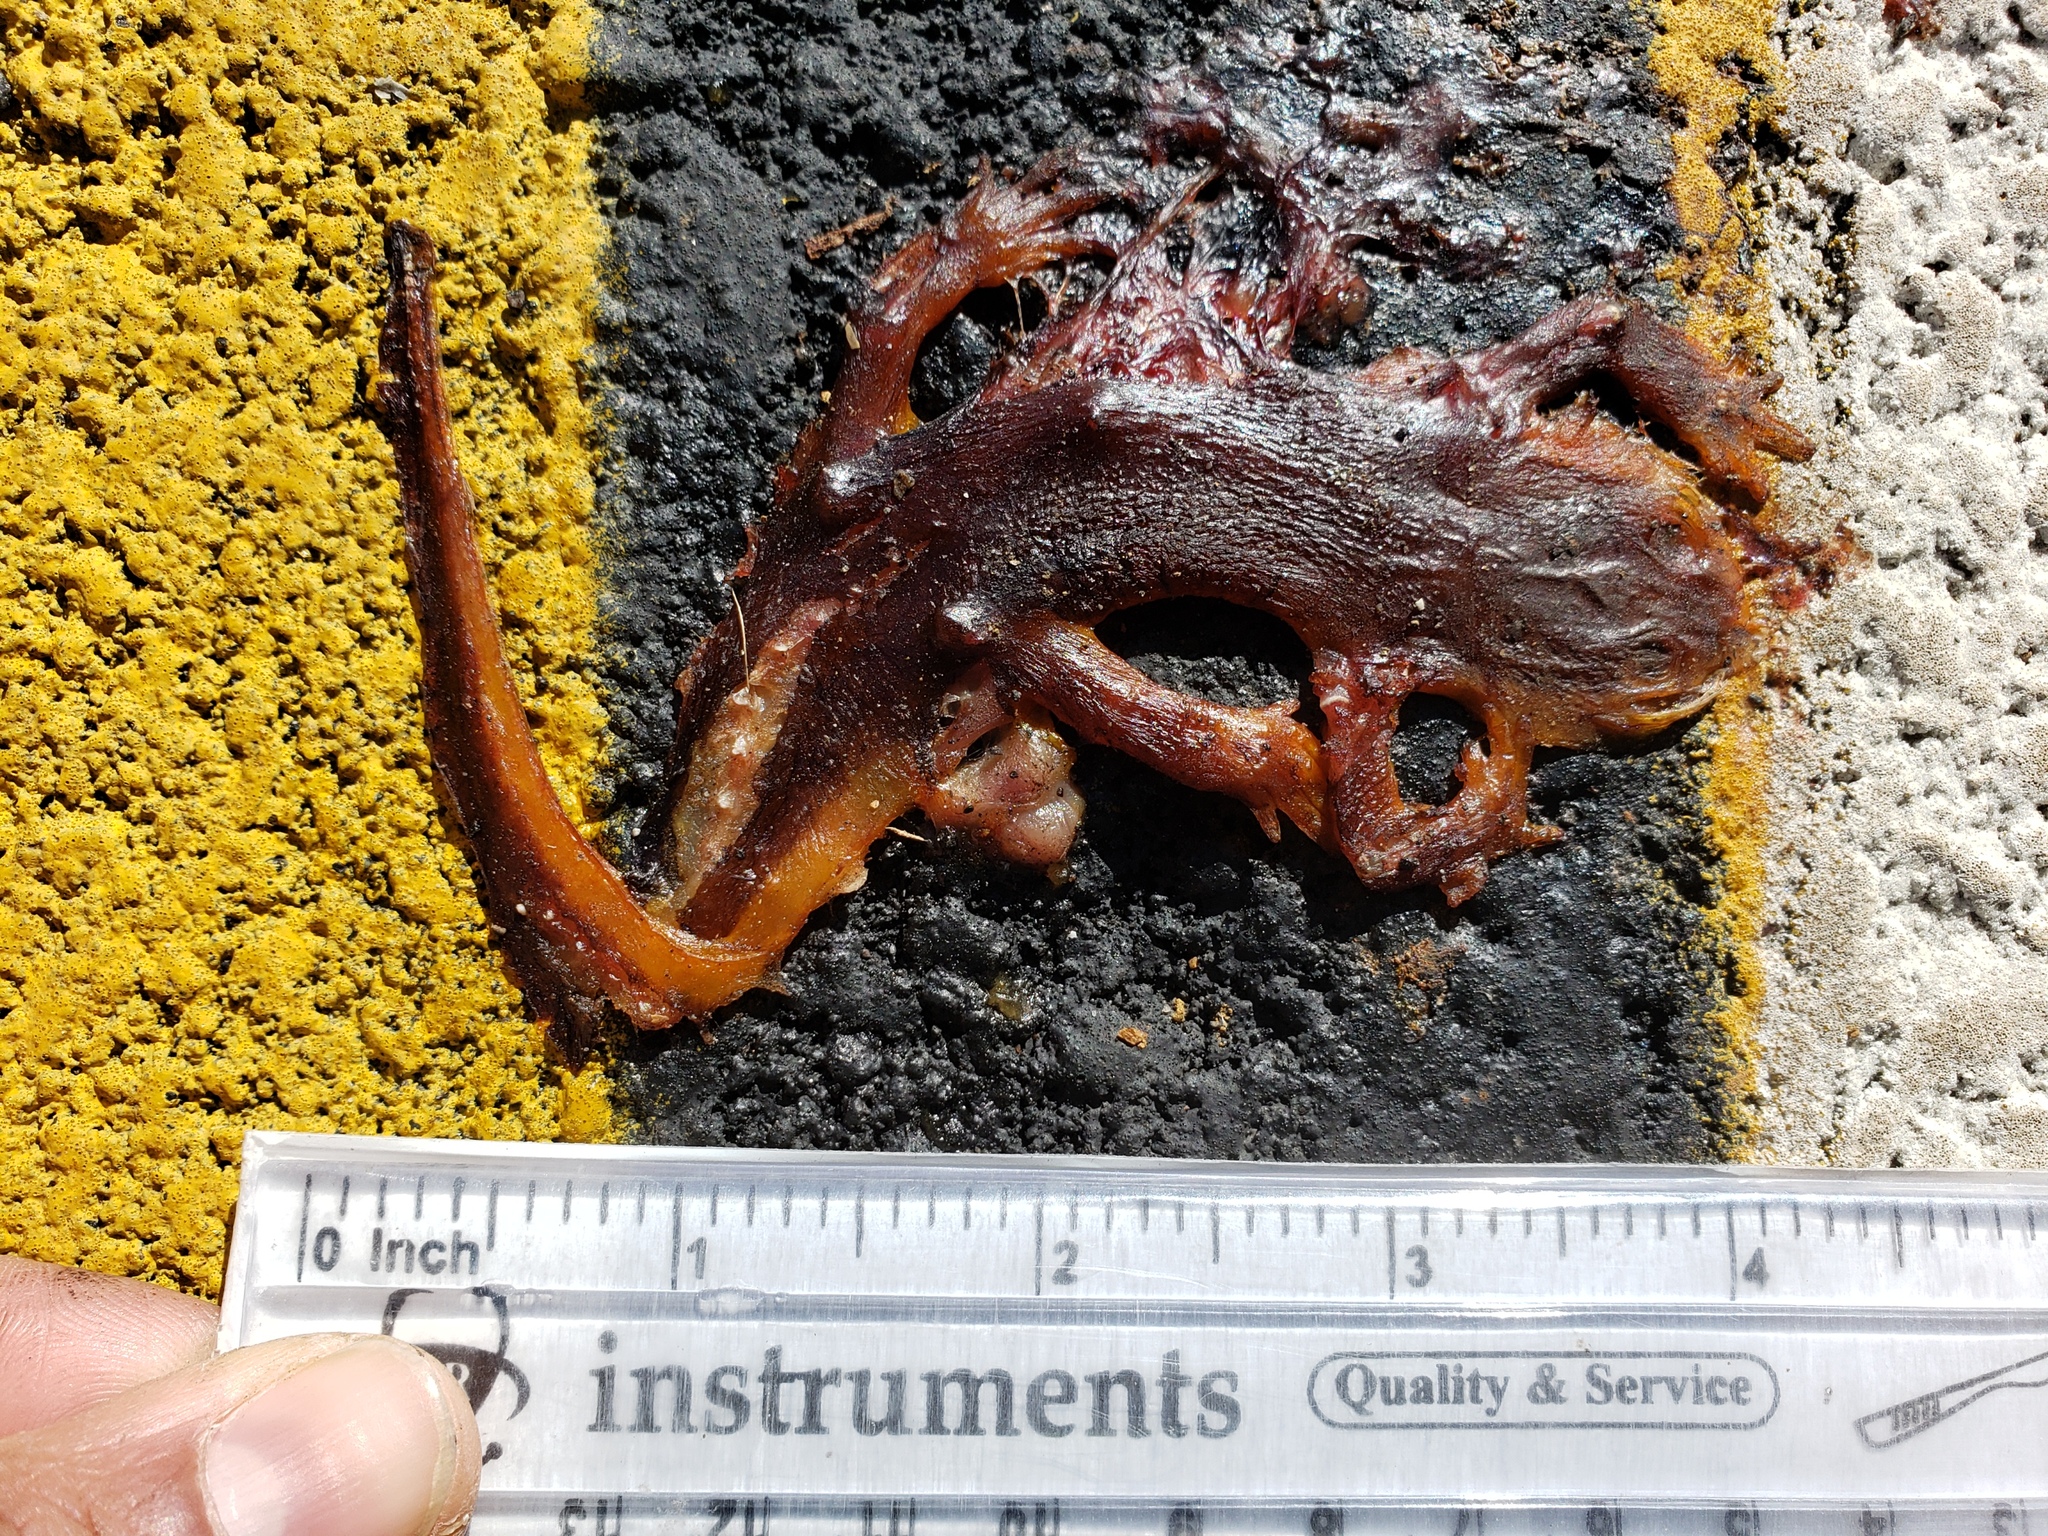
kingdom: Animalia
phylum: Chordata
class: Amphibia
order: Caudata
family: Salamandridae
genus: Taricha
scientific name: Taricha
